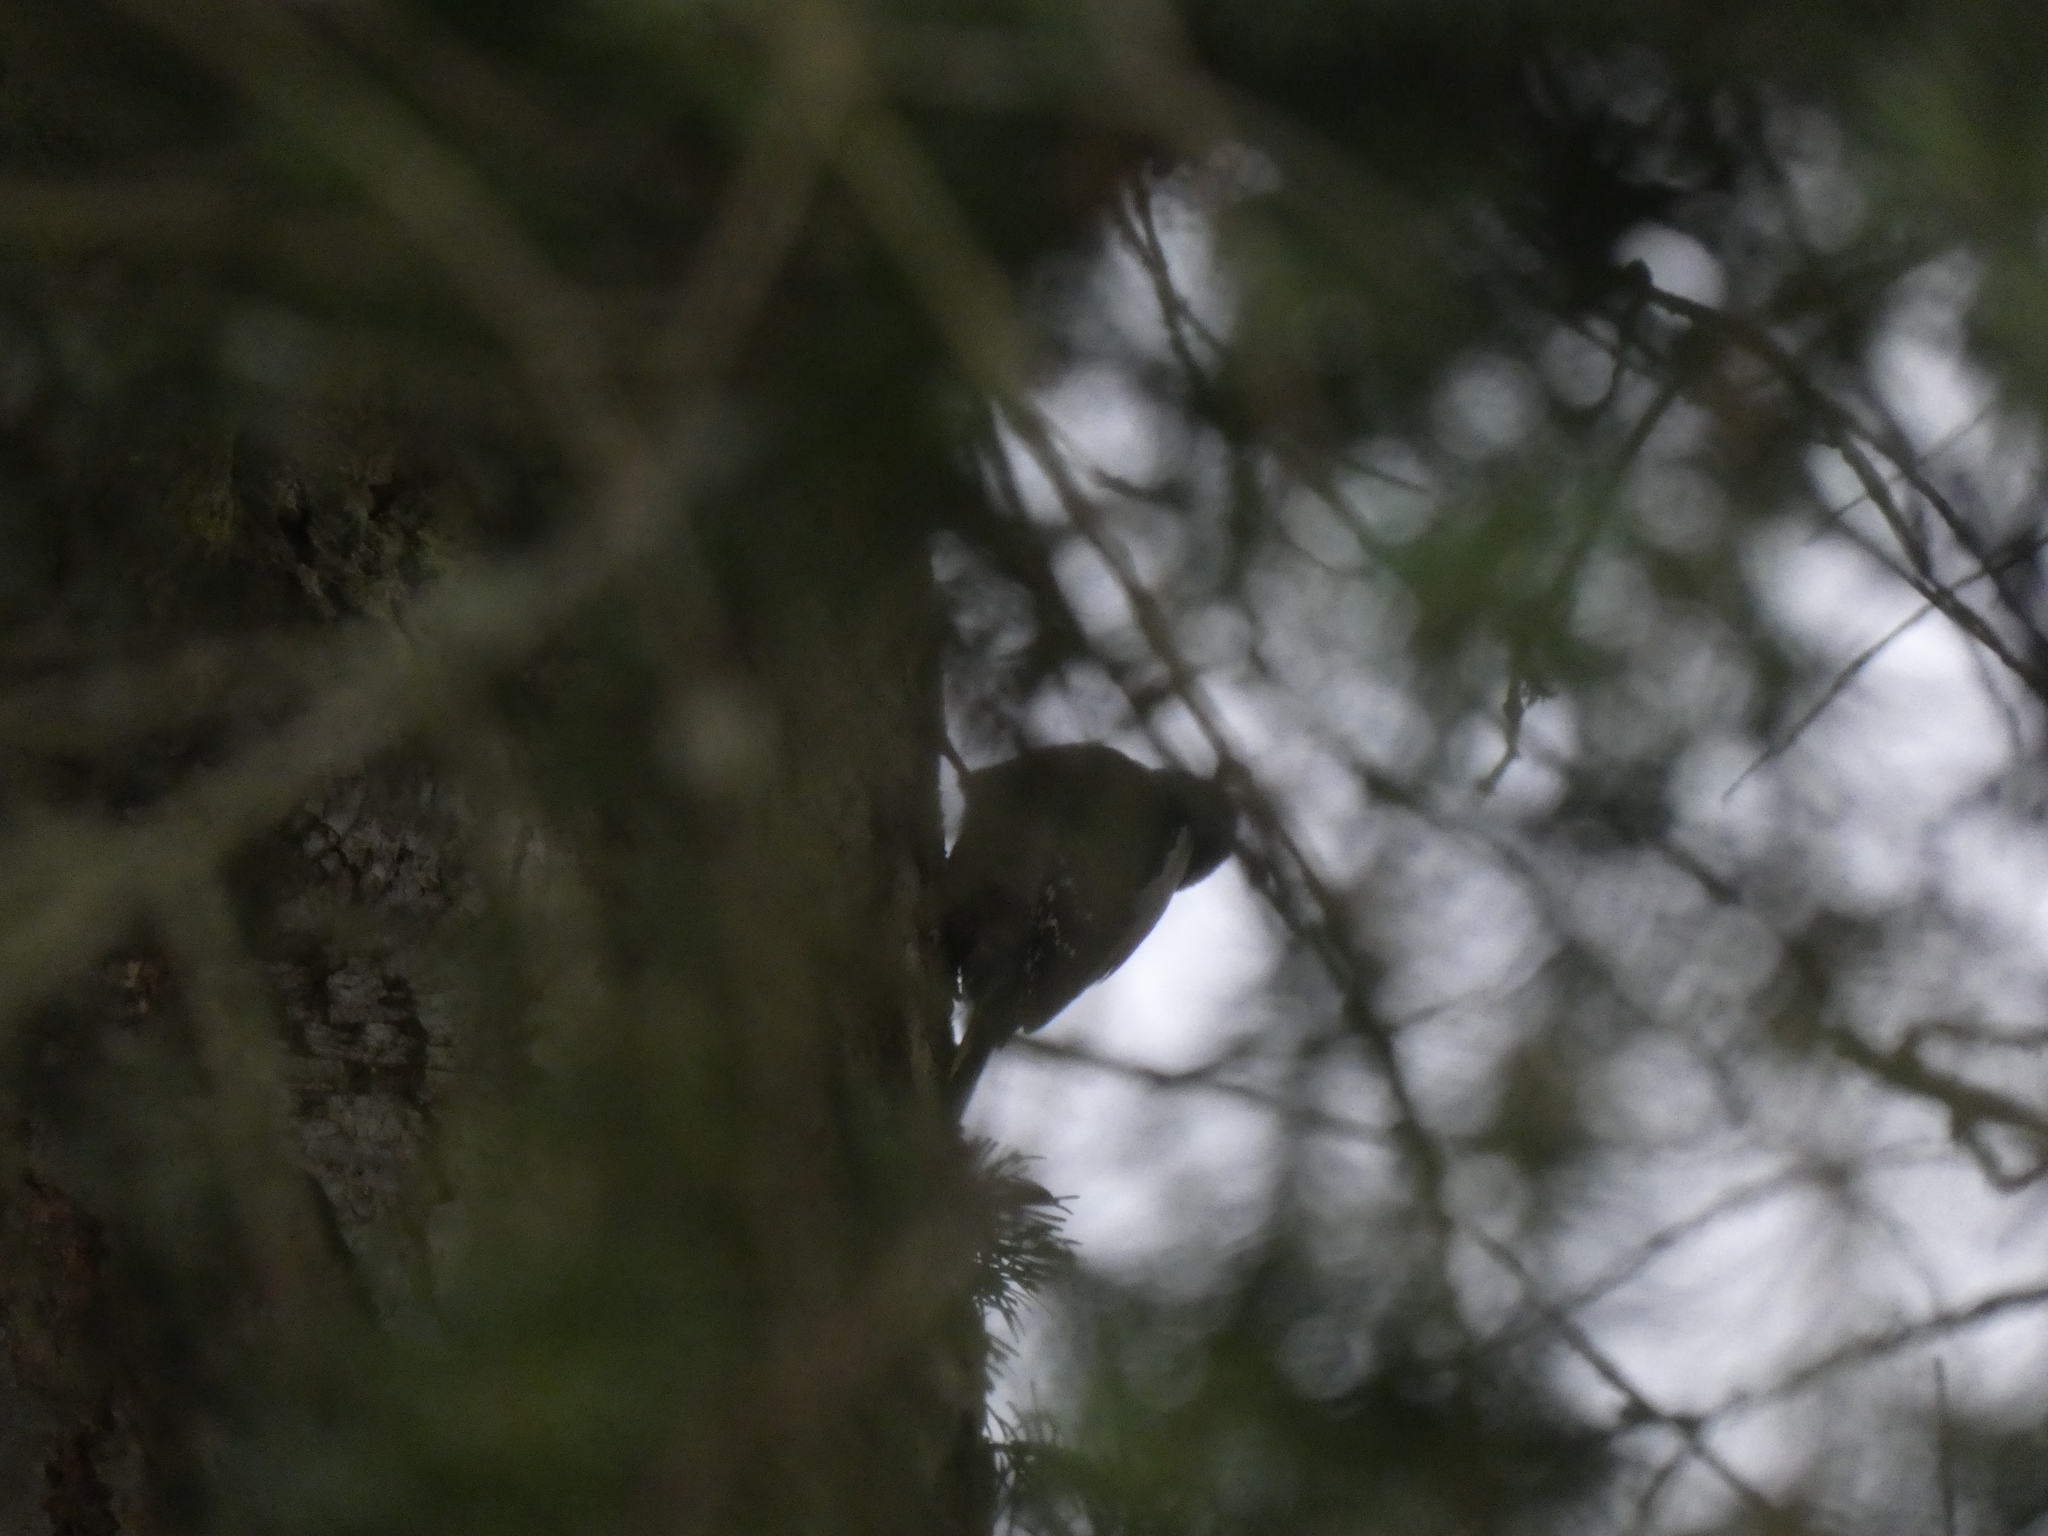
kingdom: Animalia
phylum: Chordata
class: Aves
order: Piciformes
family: Picidae
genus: Dryobates
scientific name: Dryobates pubescens
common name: Downy woodpecker
